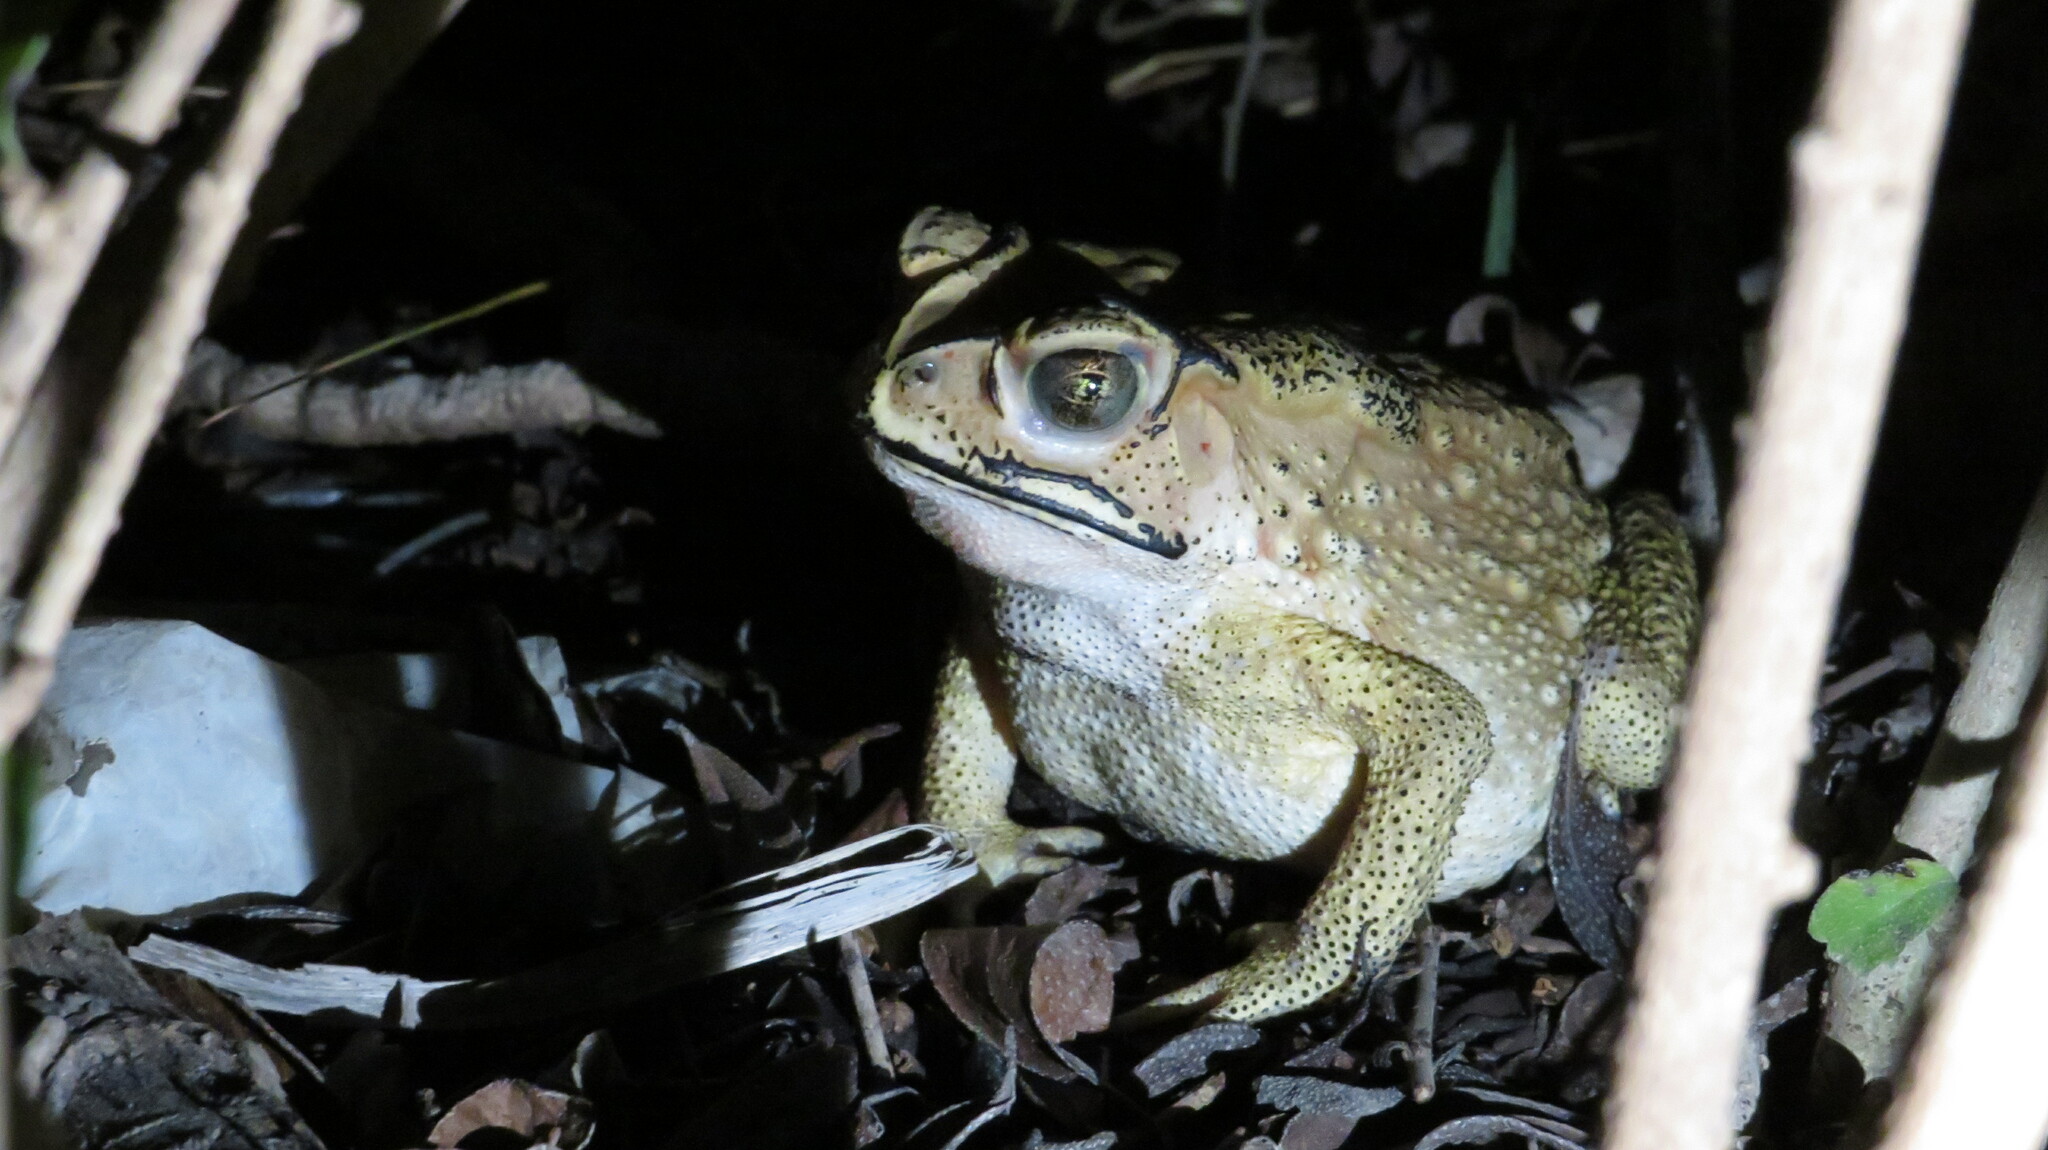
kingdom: Animalia
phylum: Chordata
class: Amphibia
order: Anura
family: Bufonidae
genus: Duttaphrynus
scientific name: Duttaphrynus melanostictus
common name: Common sunda toad
